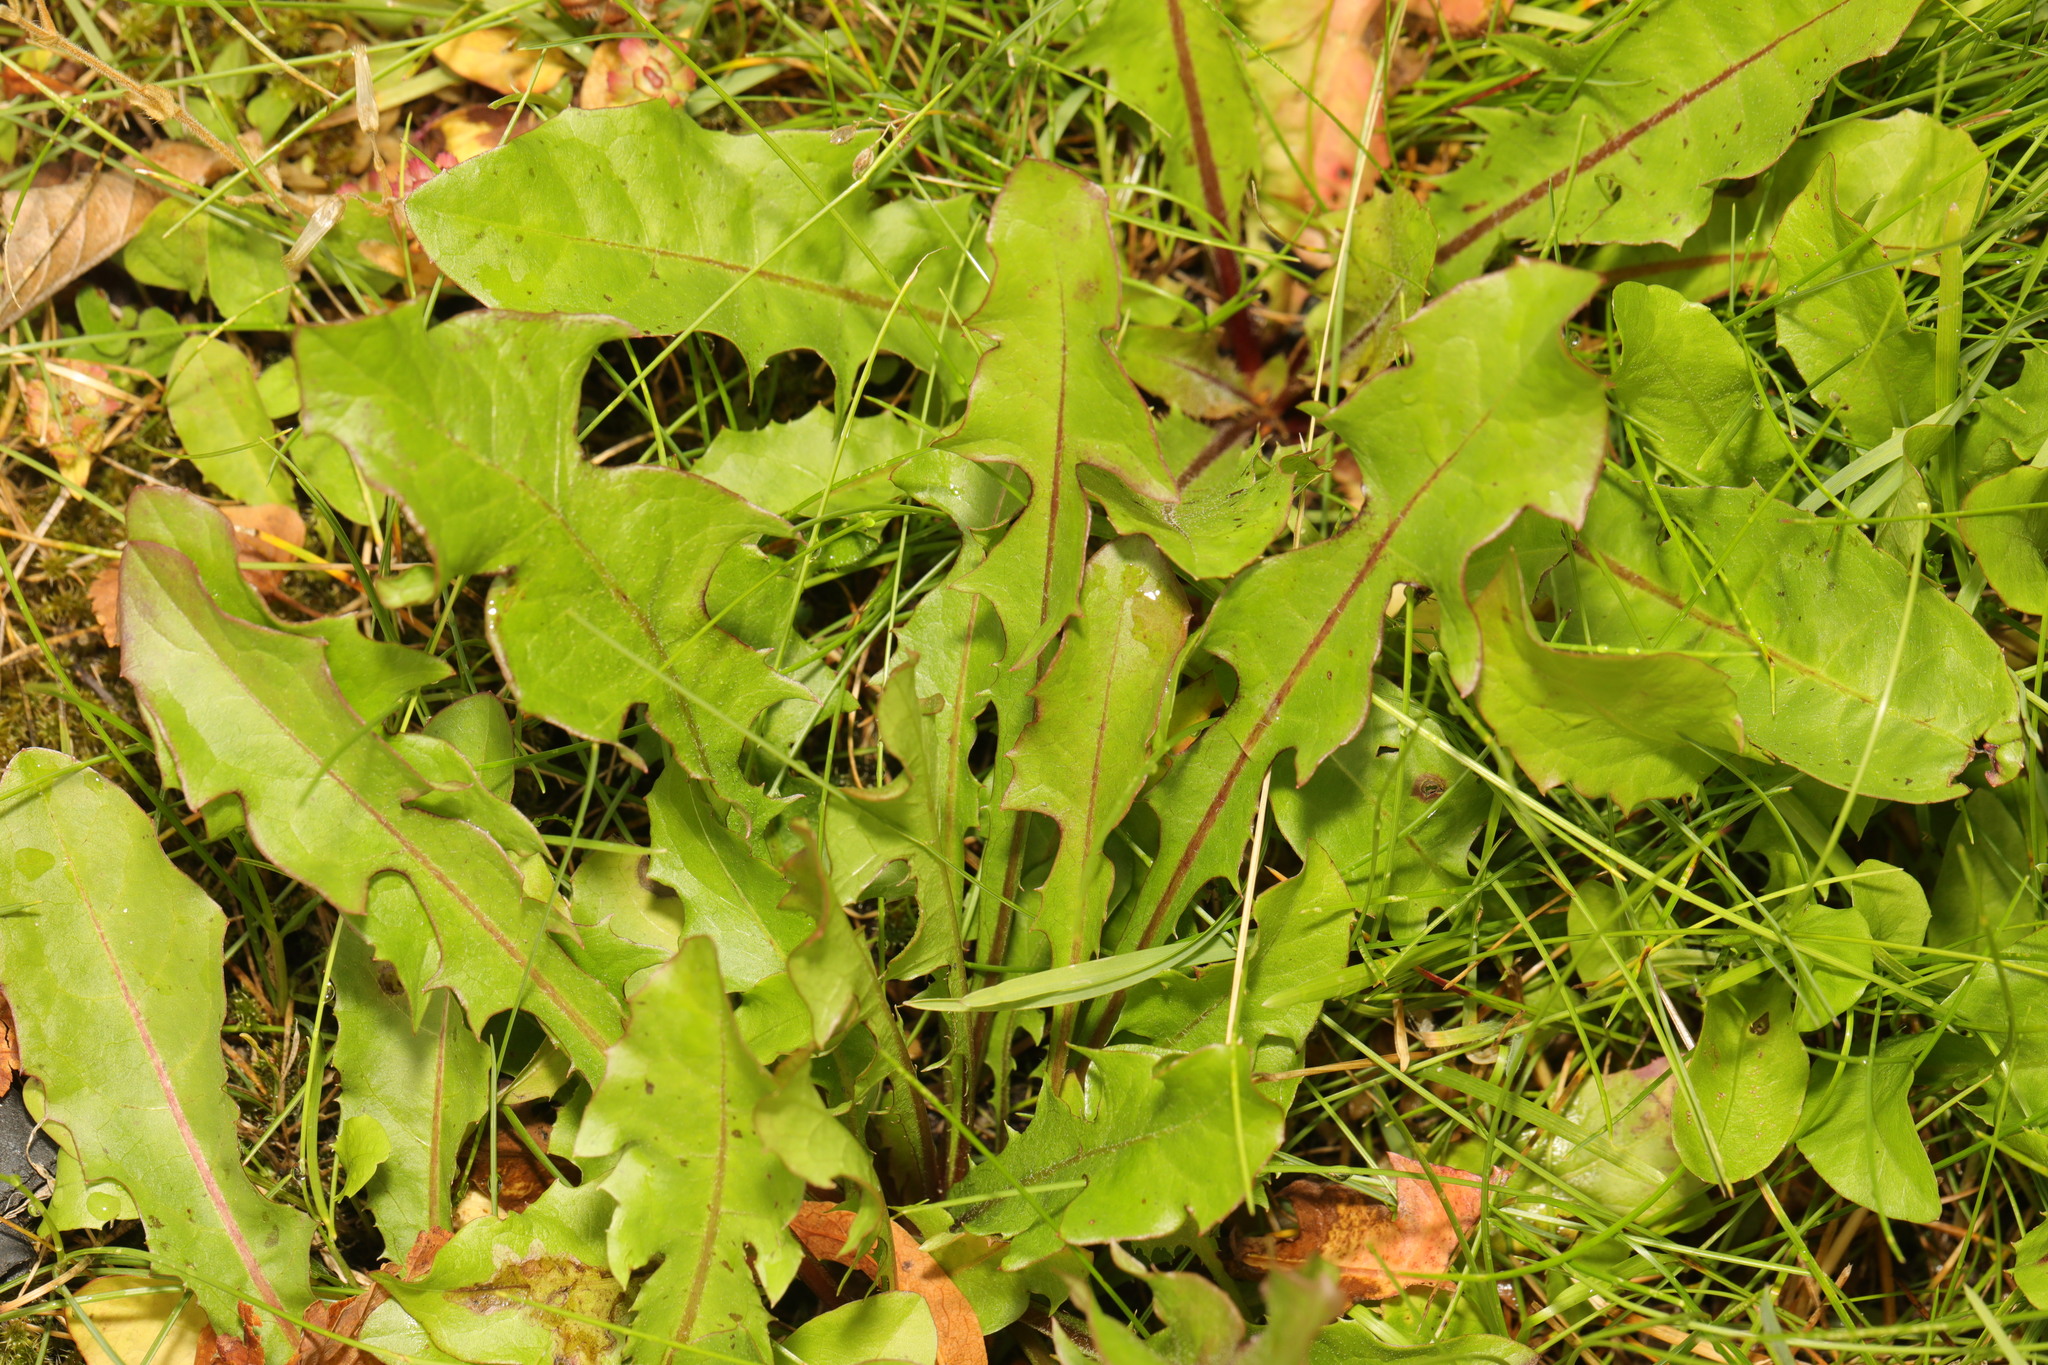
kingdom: Plantae
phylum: Tracheophyta
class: Magnoliopsida
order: Asterales
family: Asteraceae
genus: Taraxacum
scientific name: Taraxacum officinale
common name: Common dandelion
